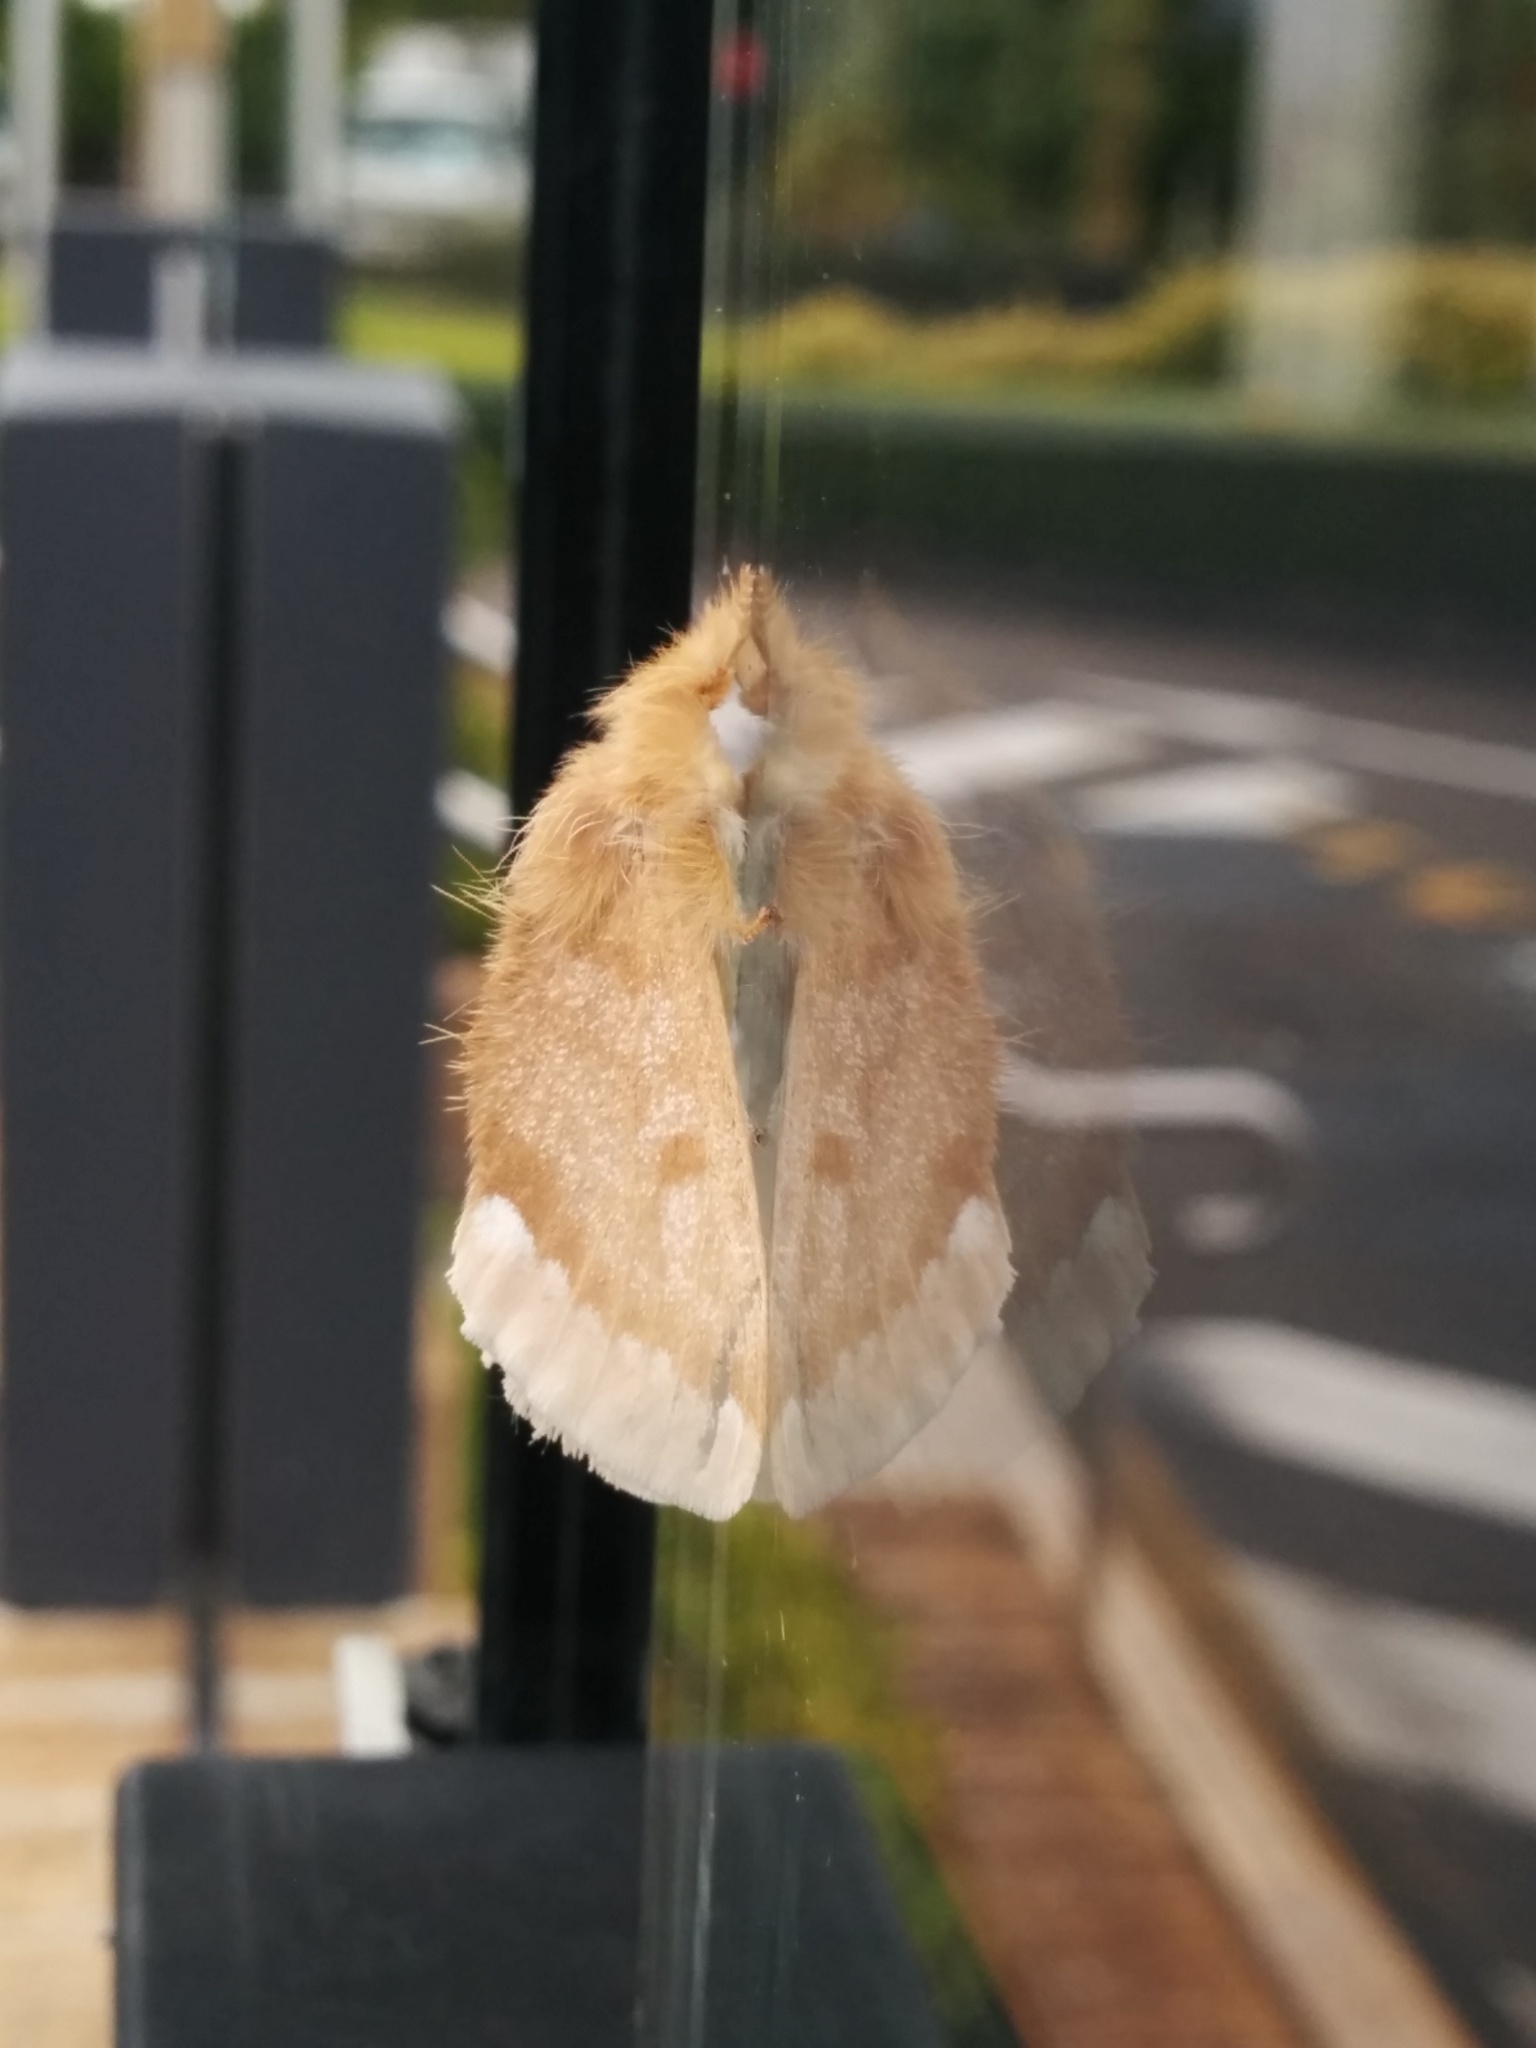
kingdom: Animalia
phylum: Arthropoda
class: Insecta
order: Lepidoptera
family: Erebidae
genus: Euproctis
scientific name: Euproctis
